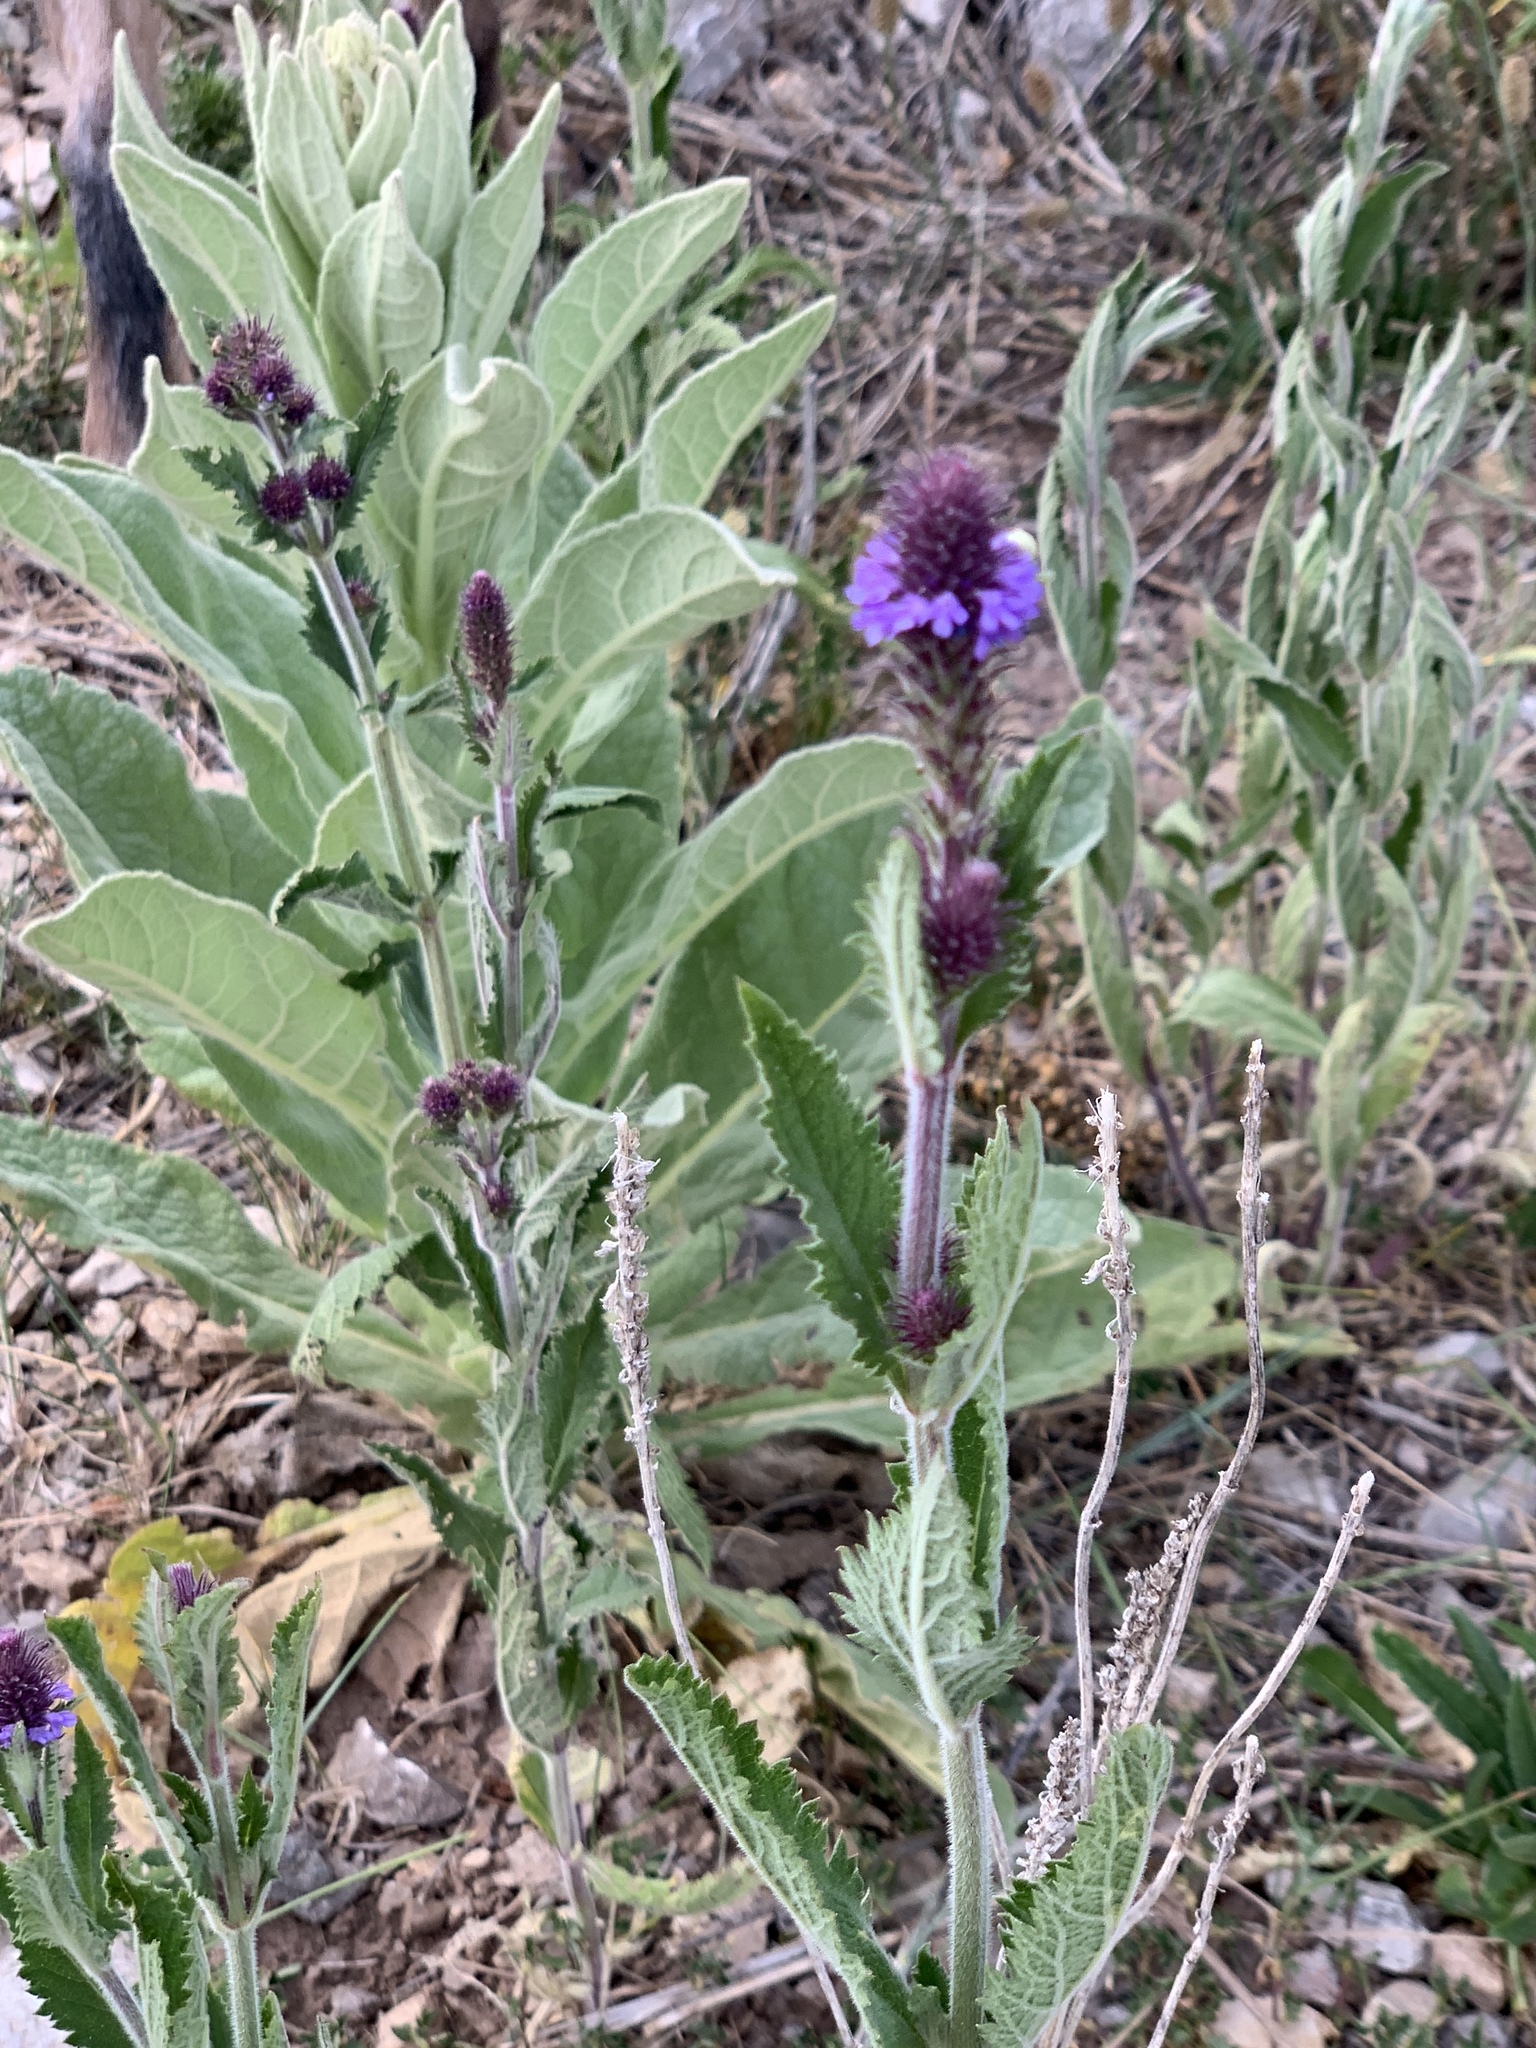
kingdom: Plantae
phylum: Tracheophyta
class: Magnoliopsida
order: Lamiales
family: Verbenaceae
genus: Verbena
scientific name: Verbena macdougalii
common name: New mexico vervain
